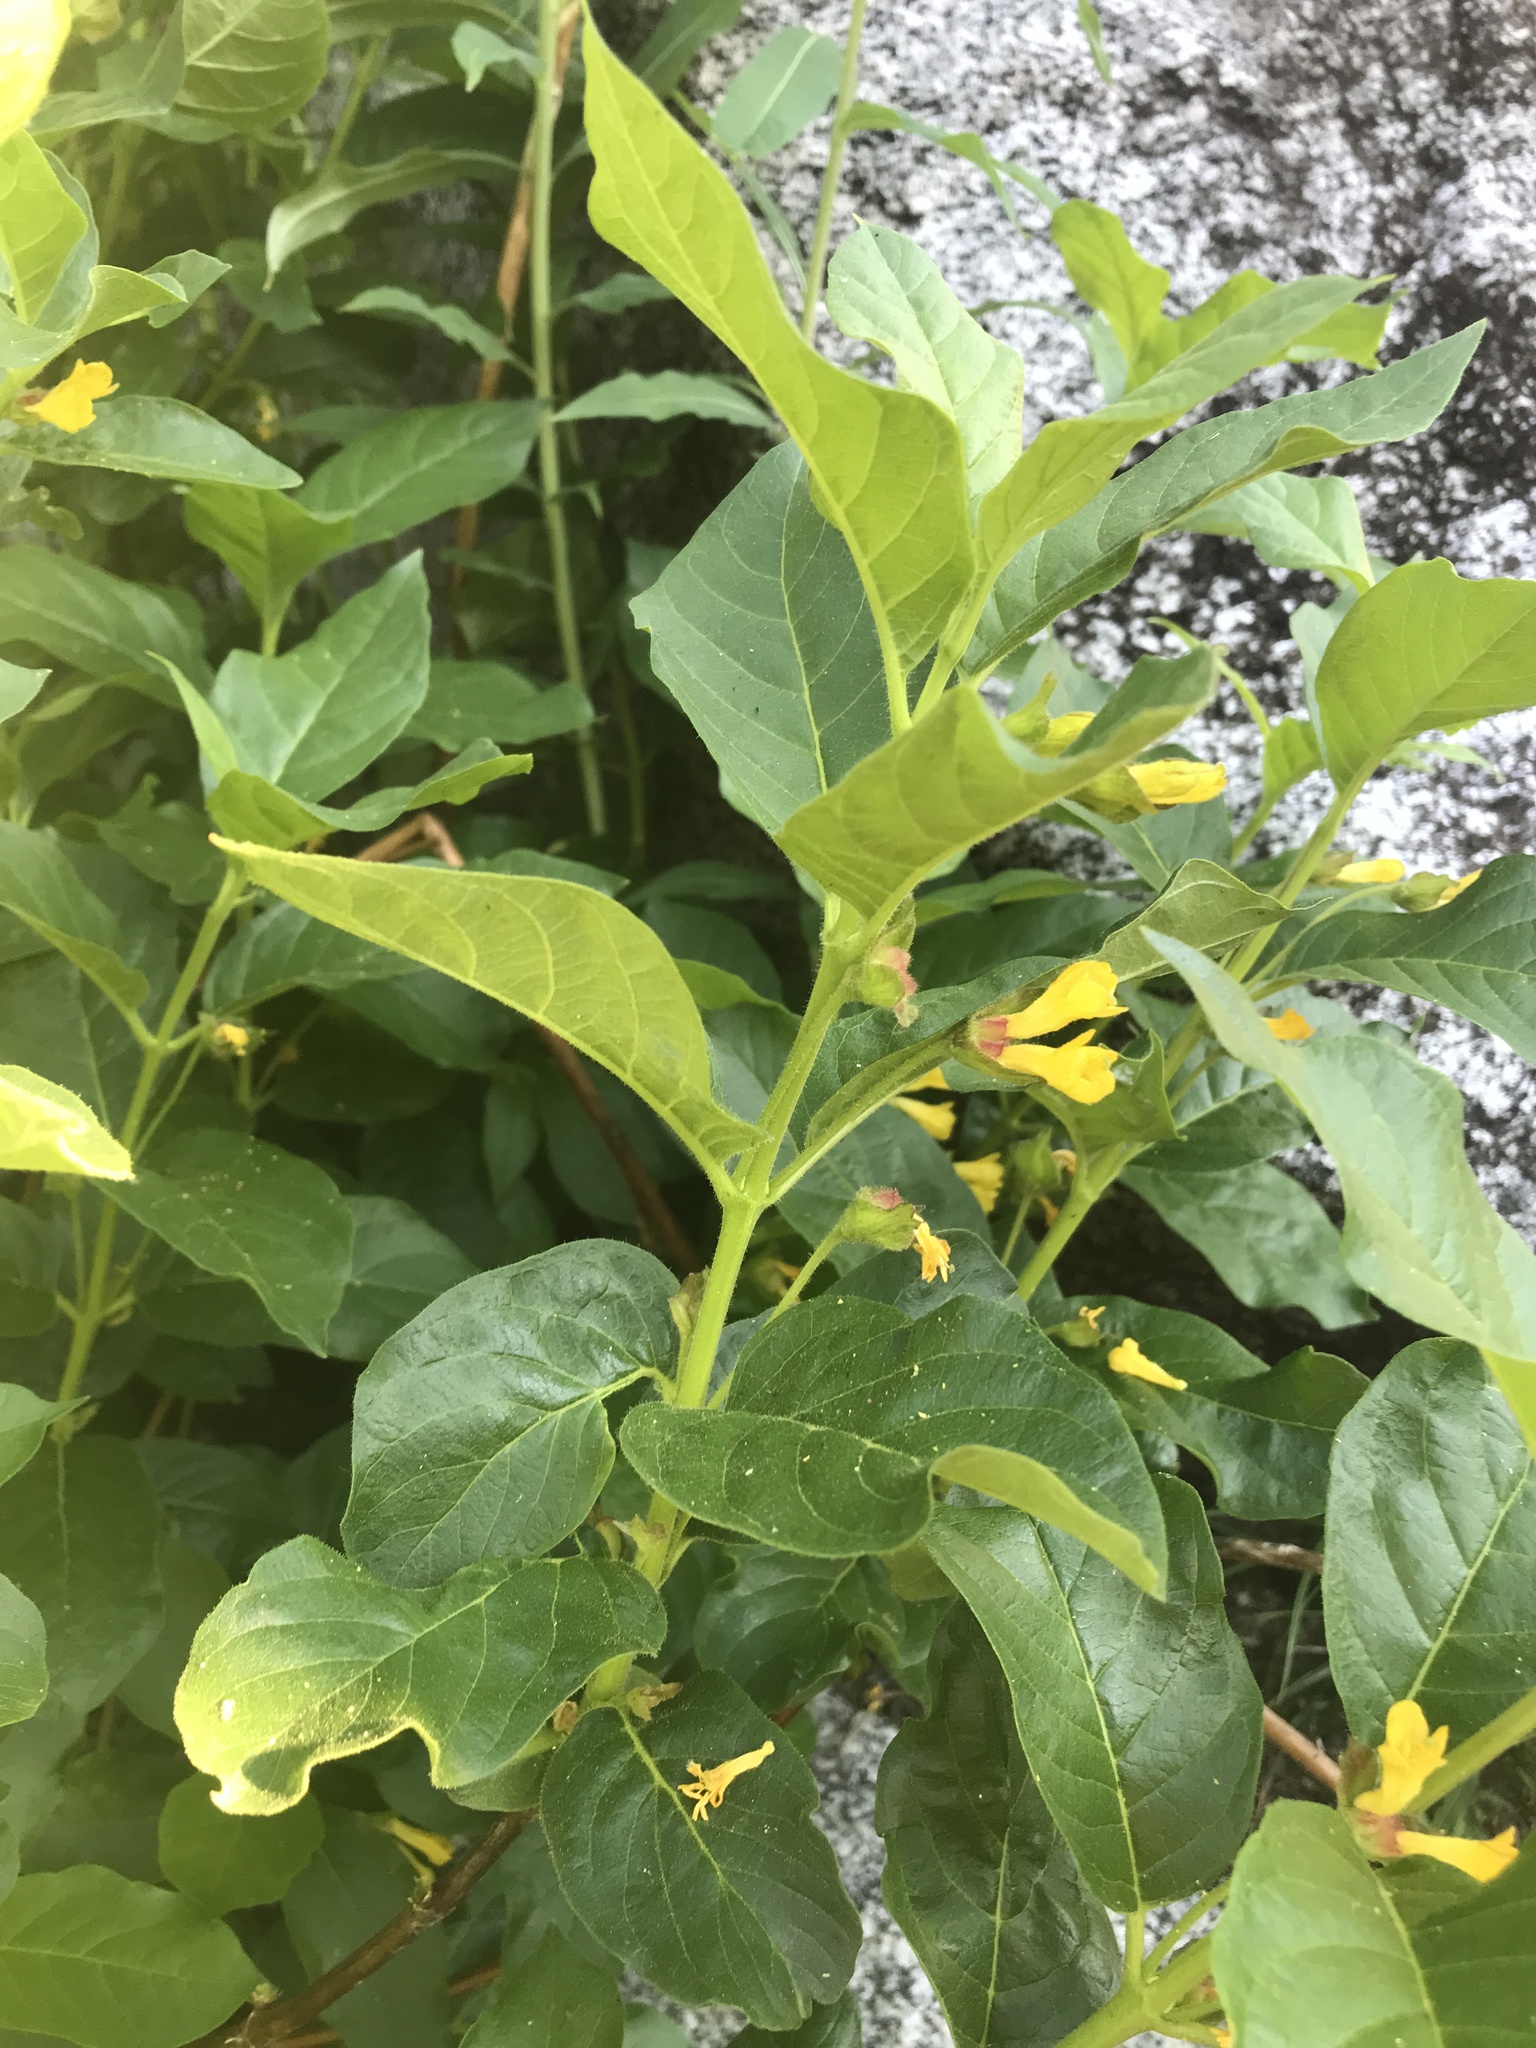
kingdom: Plantae
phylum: Tracheophyta
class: Magnoliopsida
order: Dipsacales
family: Caprifoliaceae
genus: Lonicera
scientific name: Lonicera involucrata
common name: Californian honeysuckle
